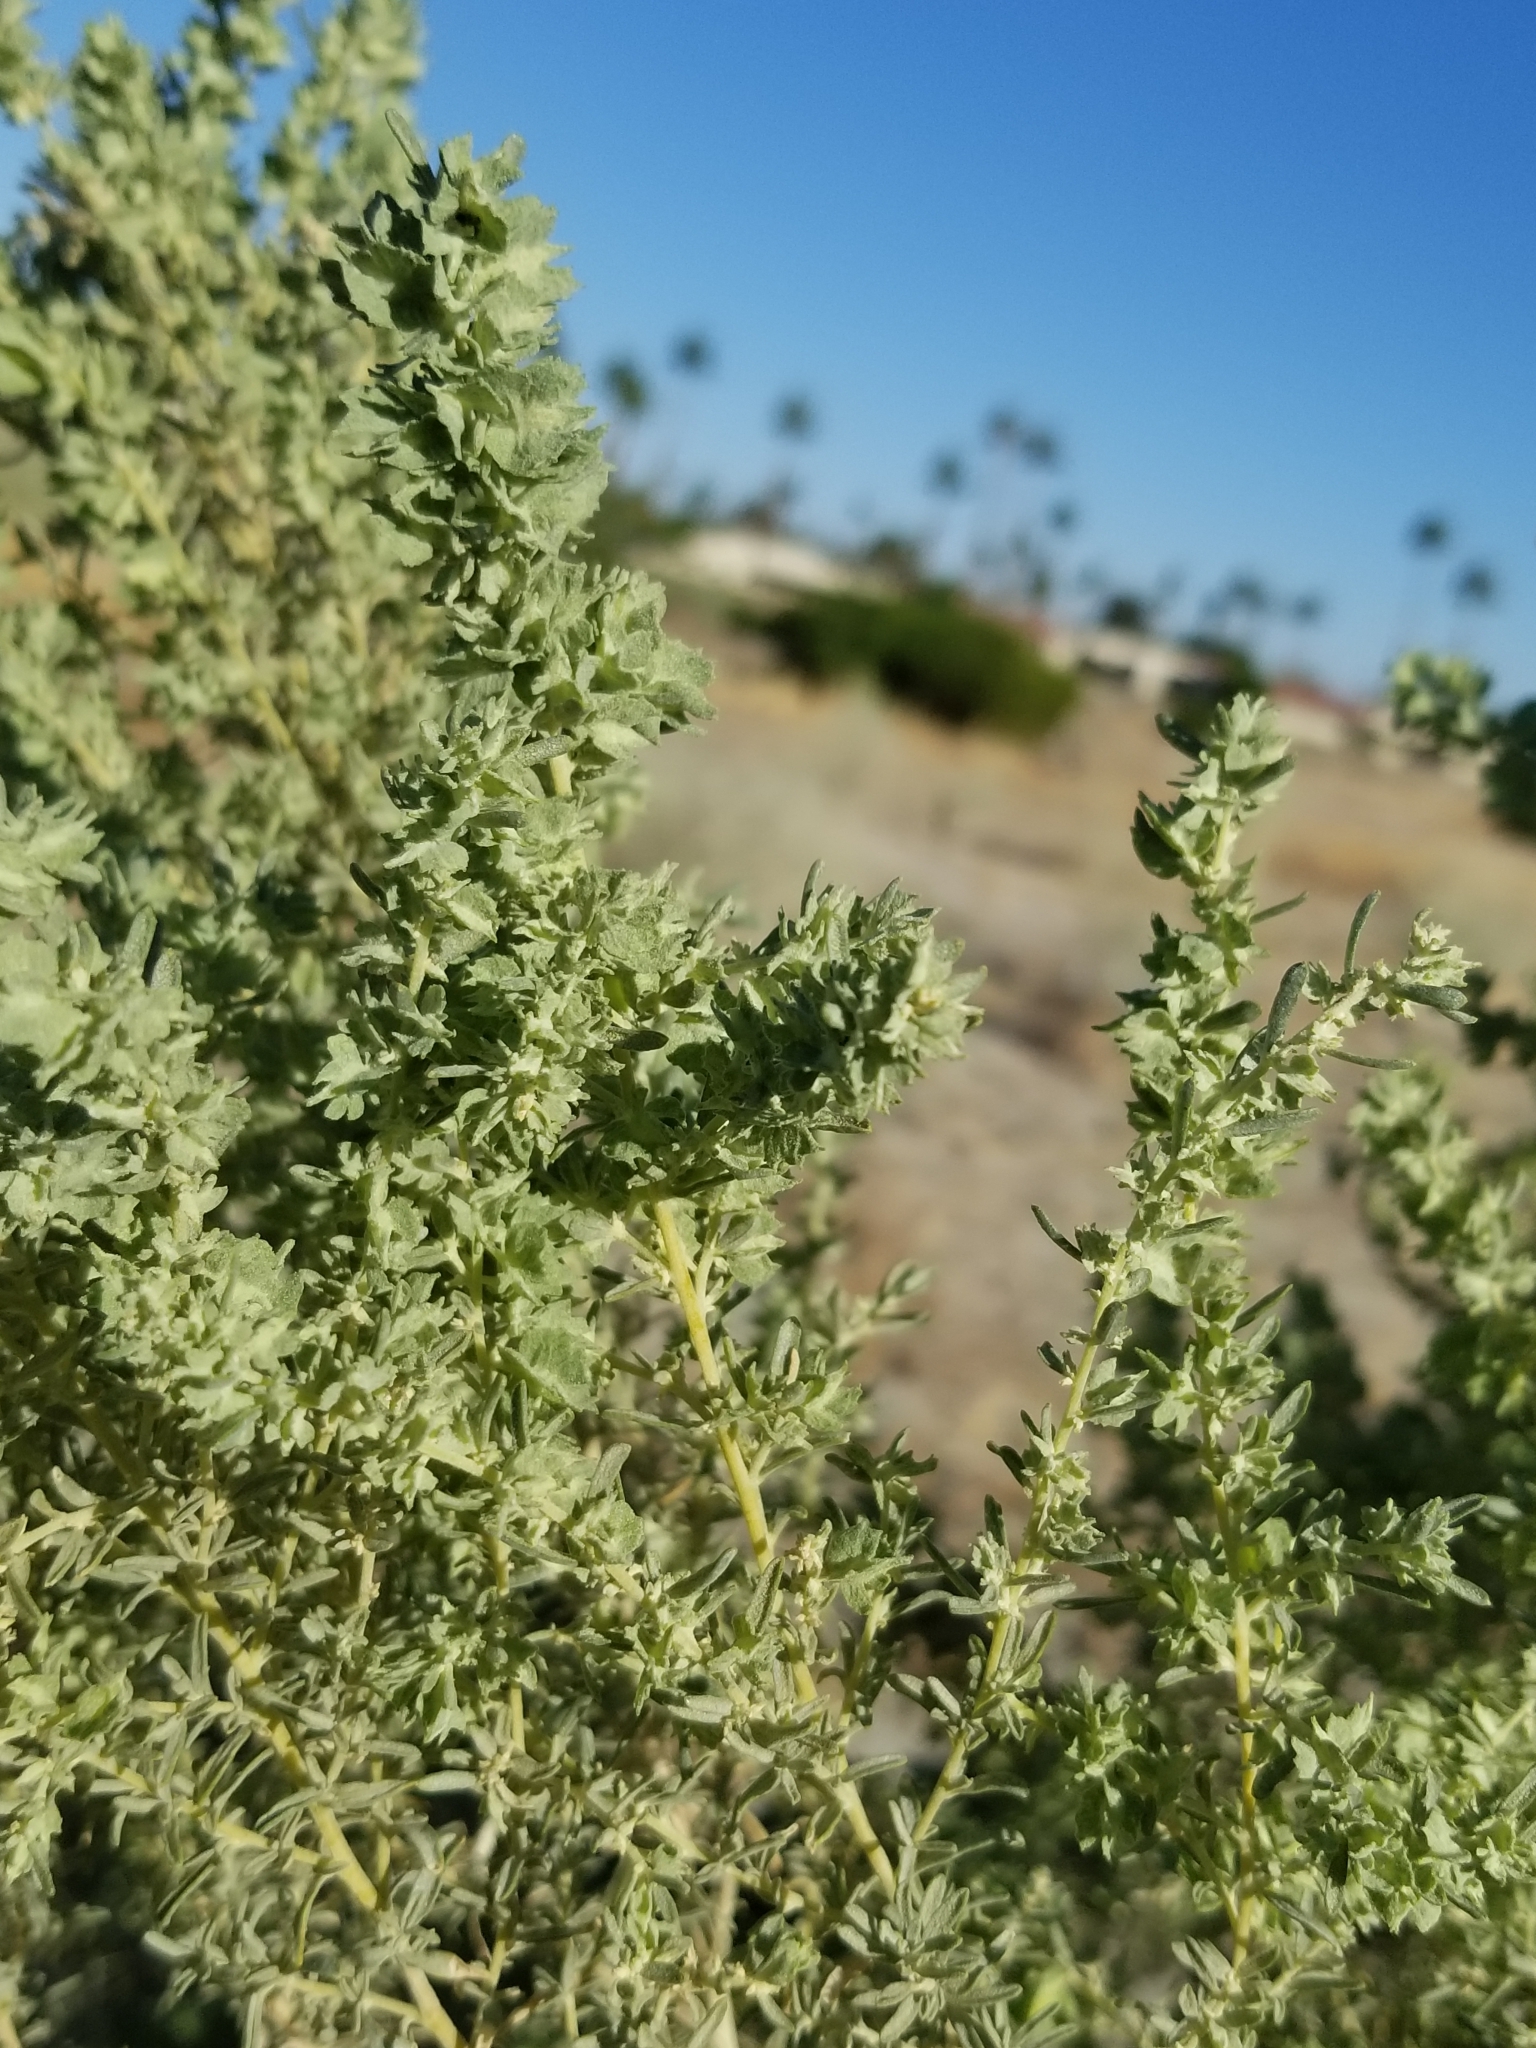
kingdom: Plantae
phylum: Tracheophyta
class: Magnoliopsida
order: Caryophyllales
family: Amaranthaceae
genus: Atriplex
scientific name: Atriplex canescens
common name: Four-wing saltbush
